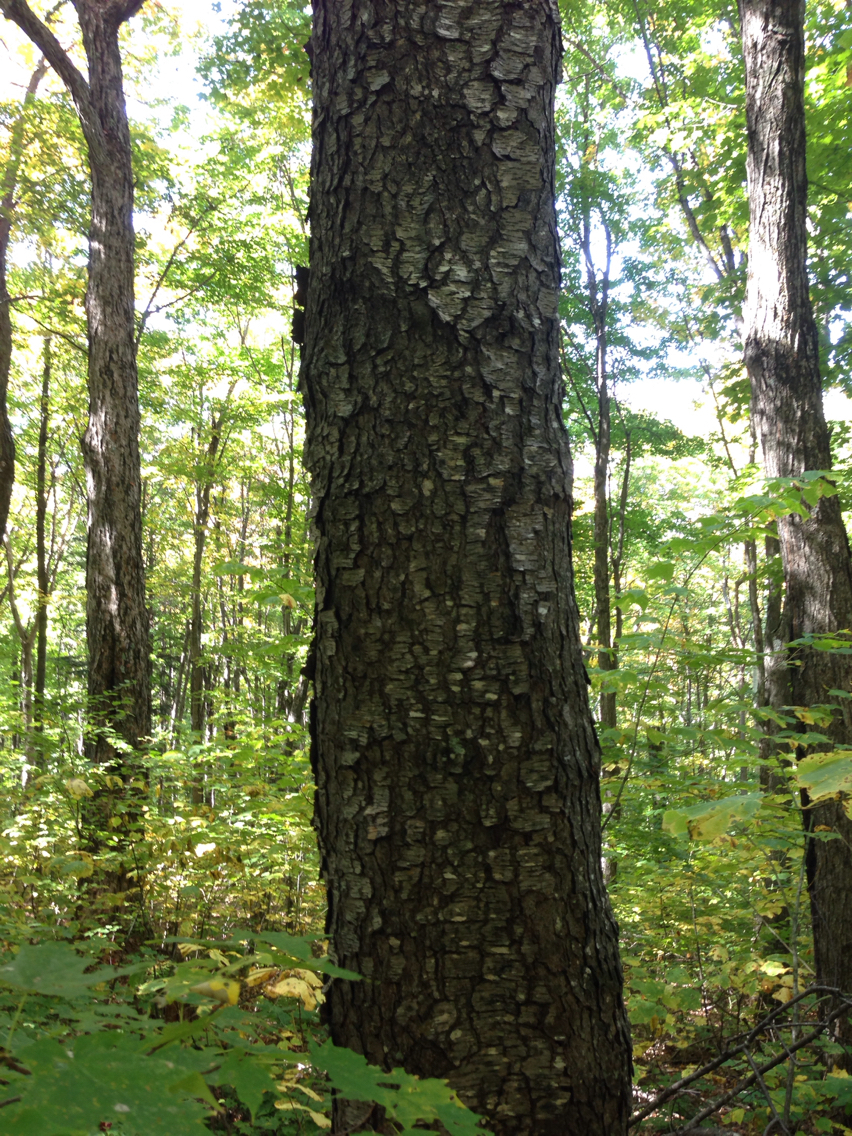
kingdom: Plantae
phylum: Tracheophyta
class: Magnoliopsida
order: Rosales
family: Rosaceae
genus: Prunus
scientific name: Prunus serotina
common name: Black cherry
